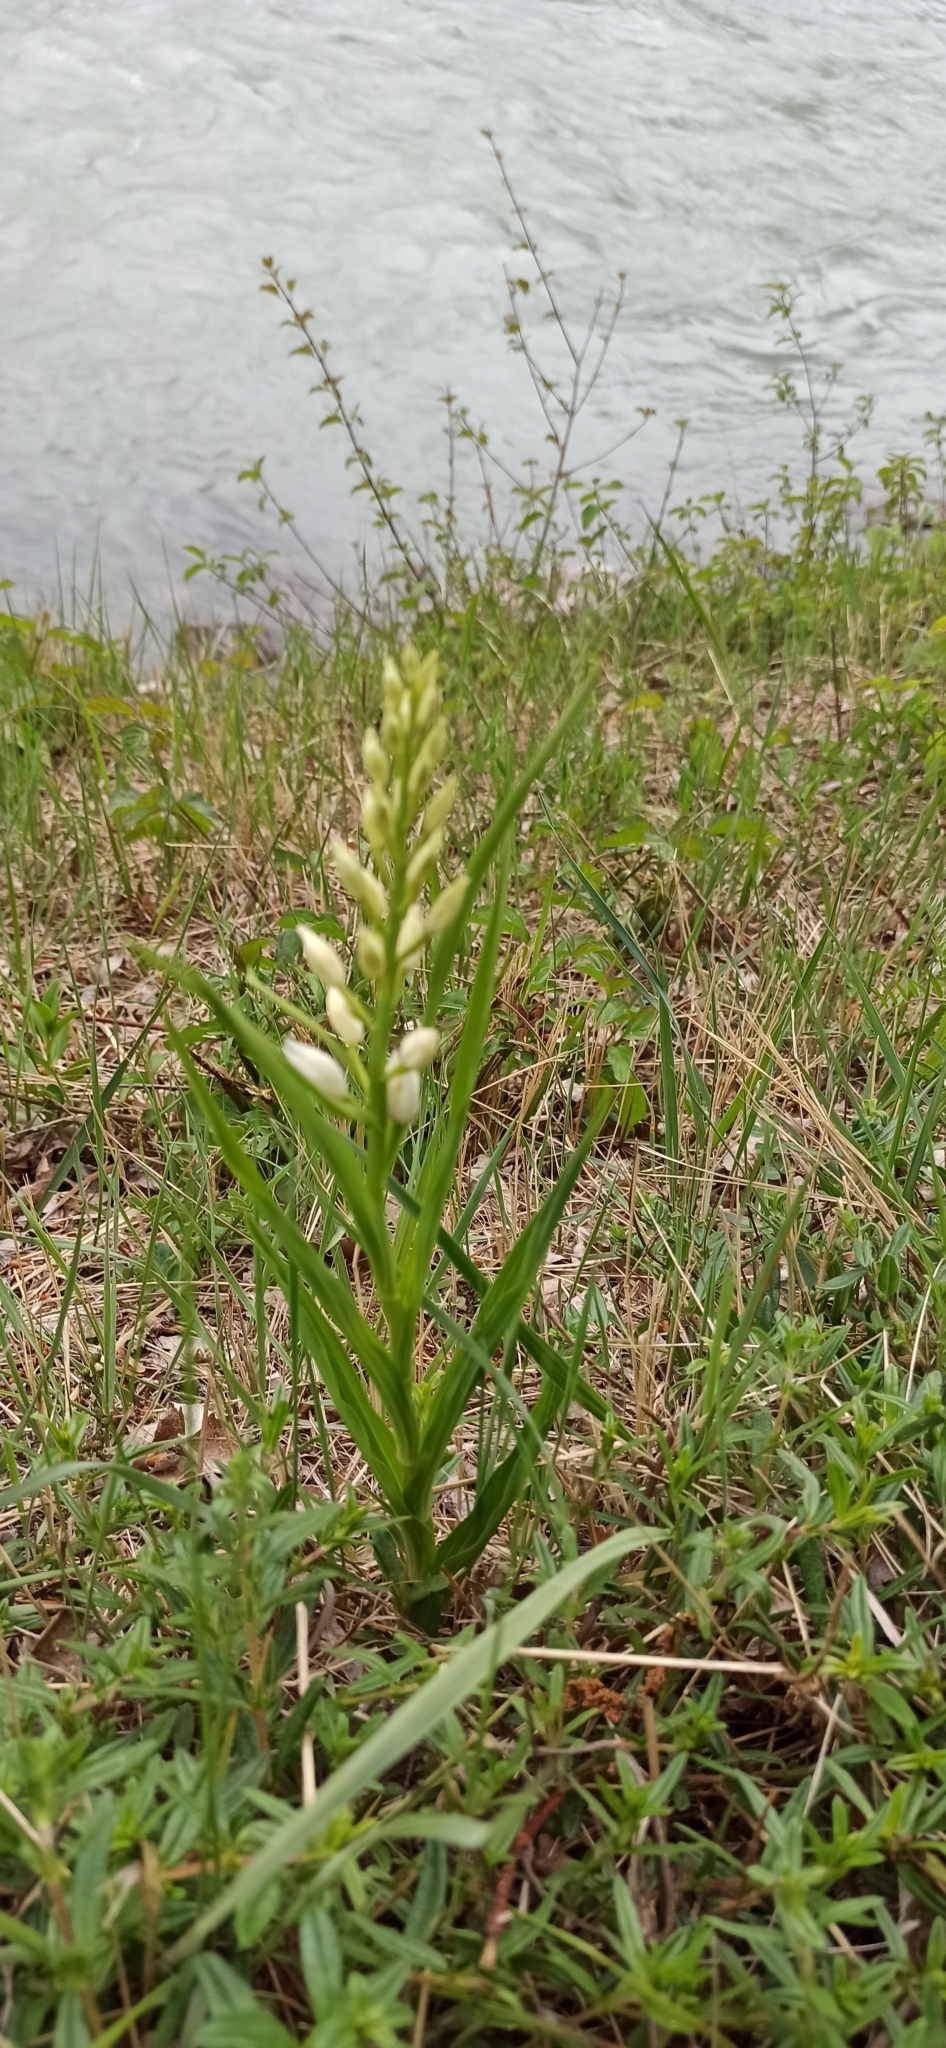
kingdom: Plantae
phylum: Tracheophyta
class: Liliopsida
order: Asparagales
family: Orchidaceae
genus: Cephalanthera
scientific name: Cephalanthera longifolia
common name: Narrow-leaved helleborine
